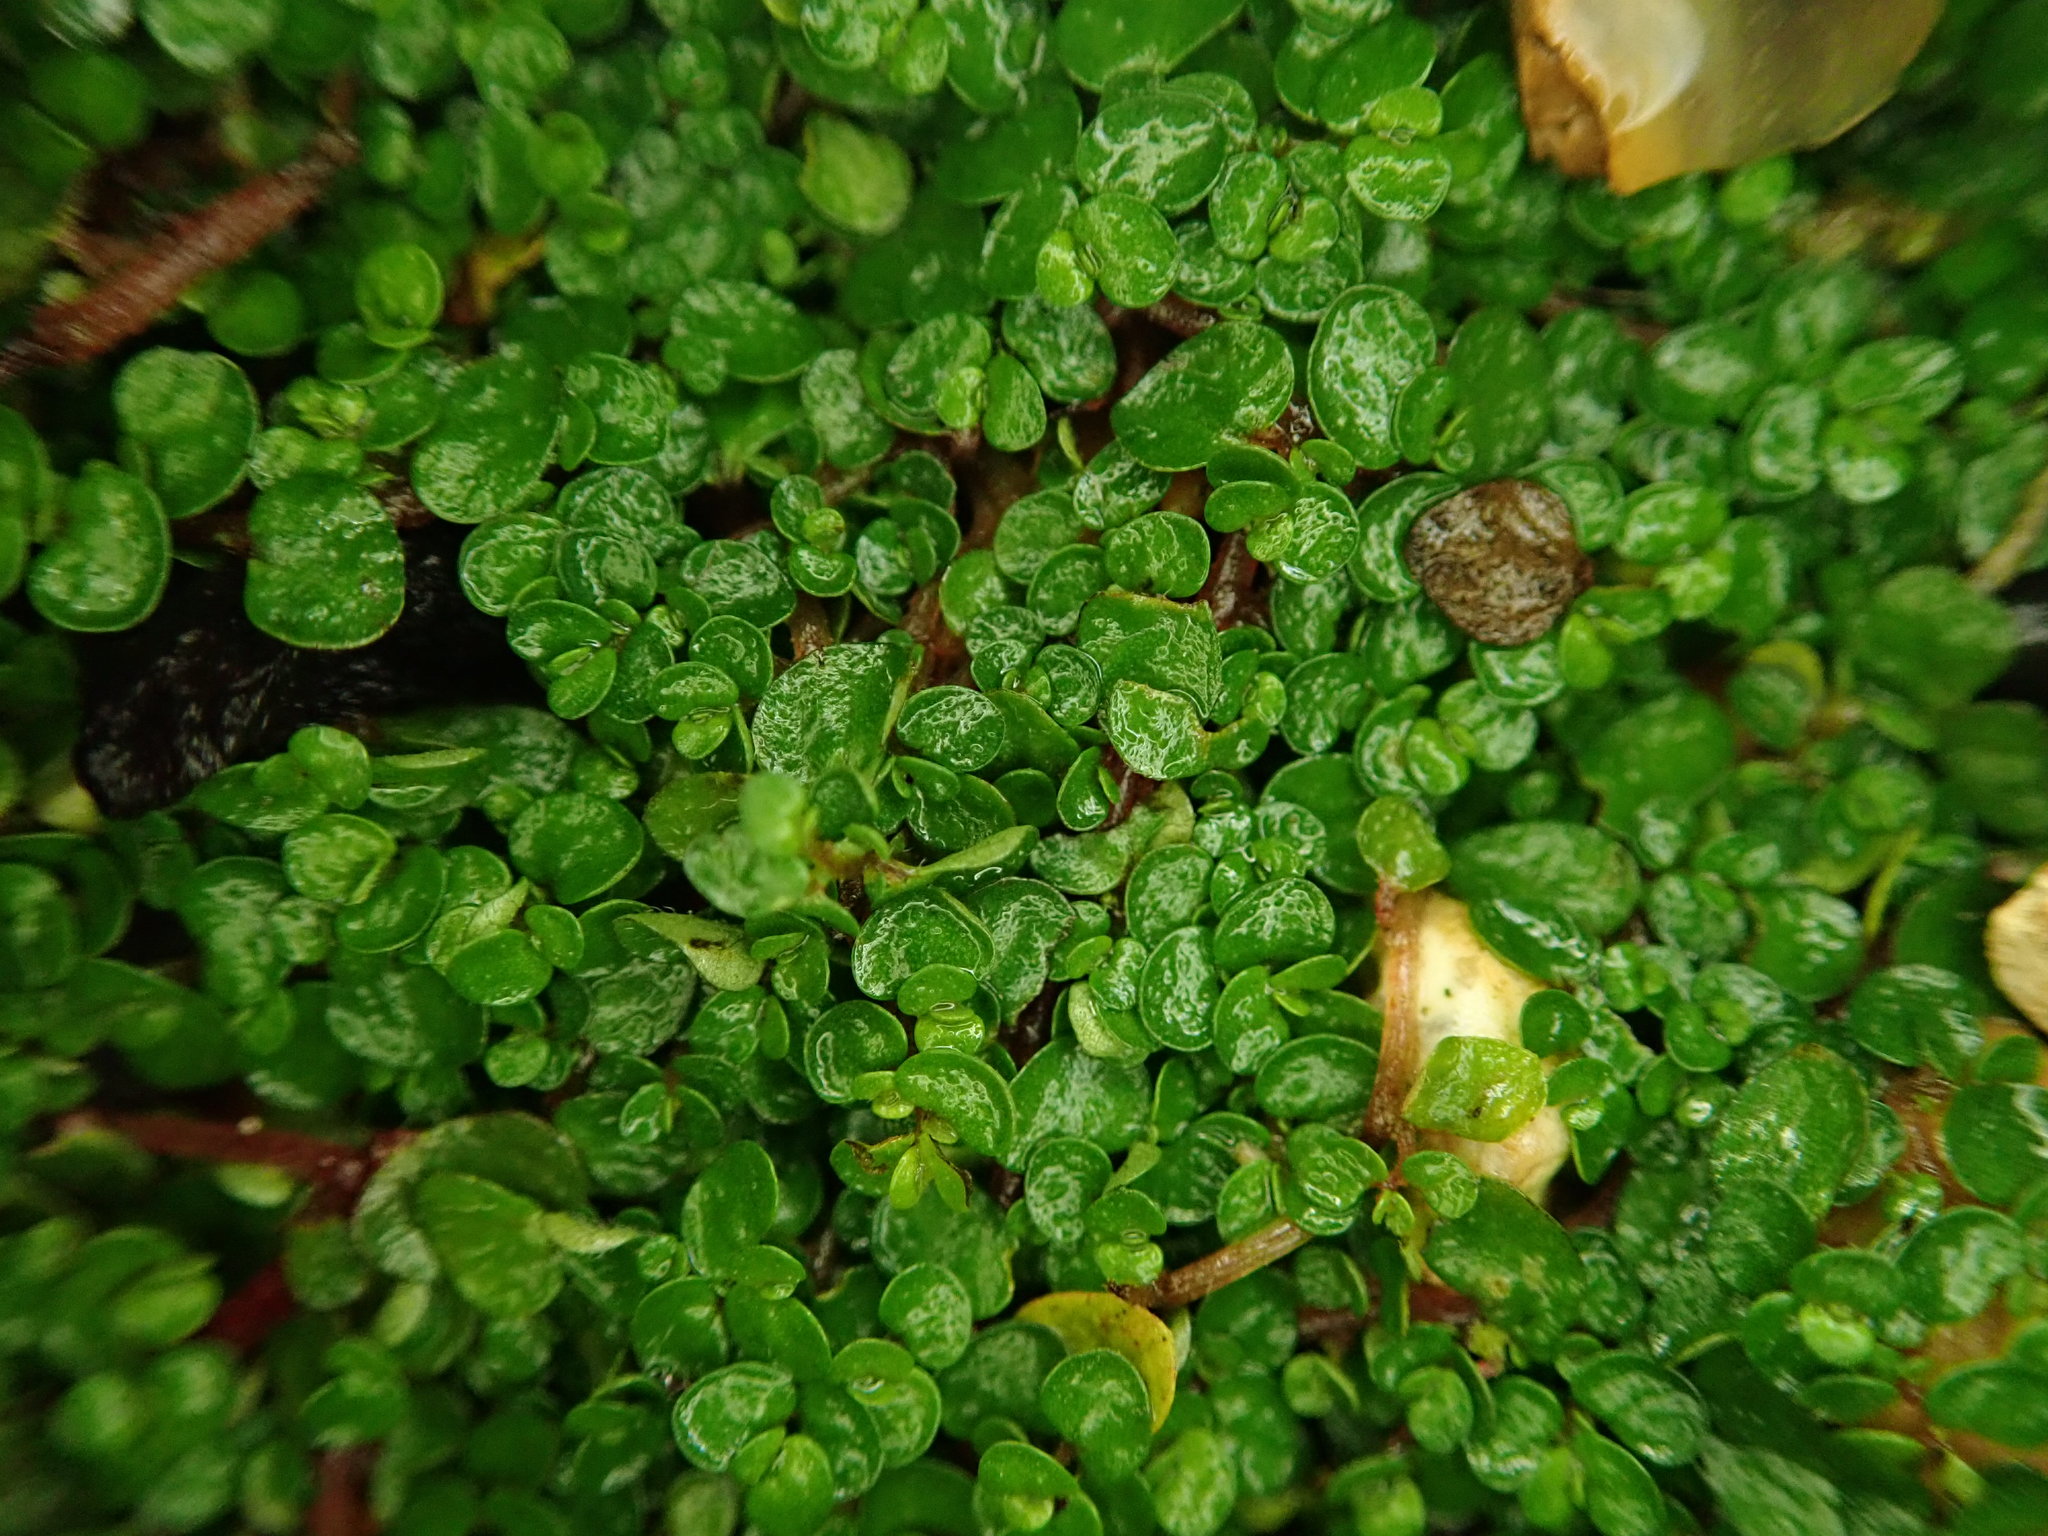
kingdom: Plantae
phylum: Tracheophyta
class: Magnoliopsida
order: Rosales
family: Urticaceae
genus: Soleirolia
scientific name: Soleirolia soleirolii
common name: Mind-your-own-business
